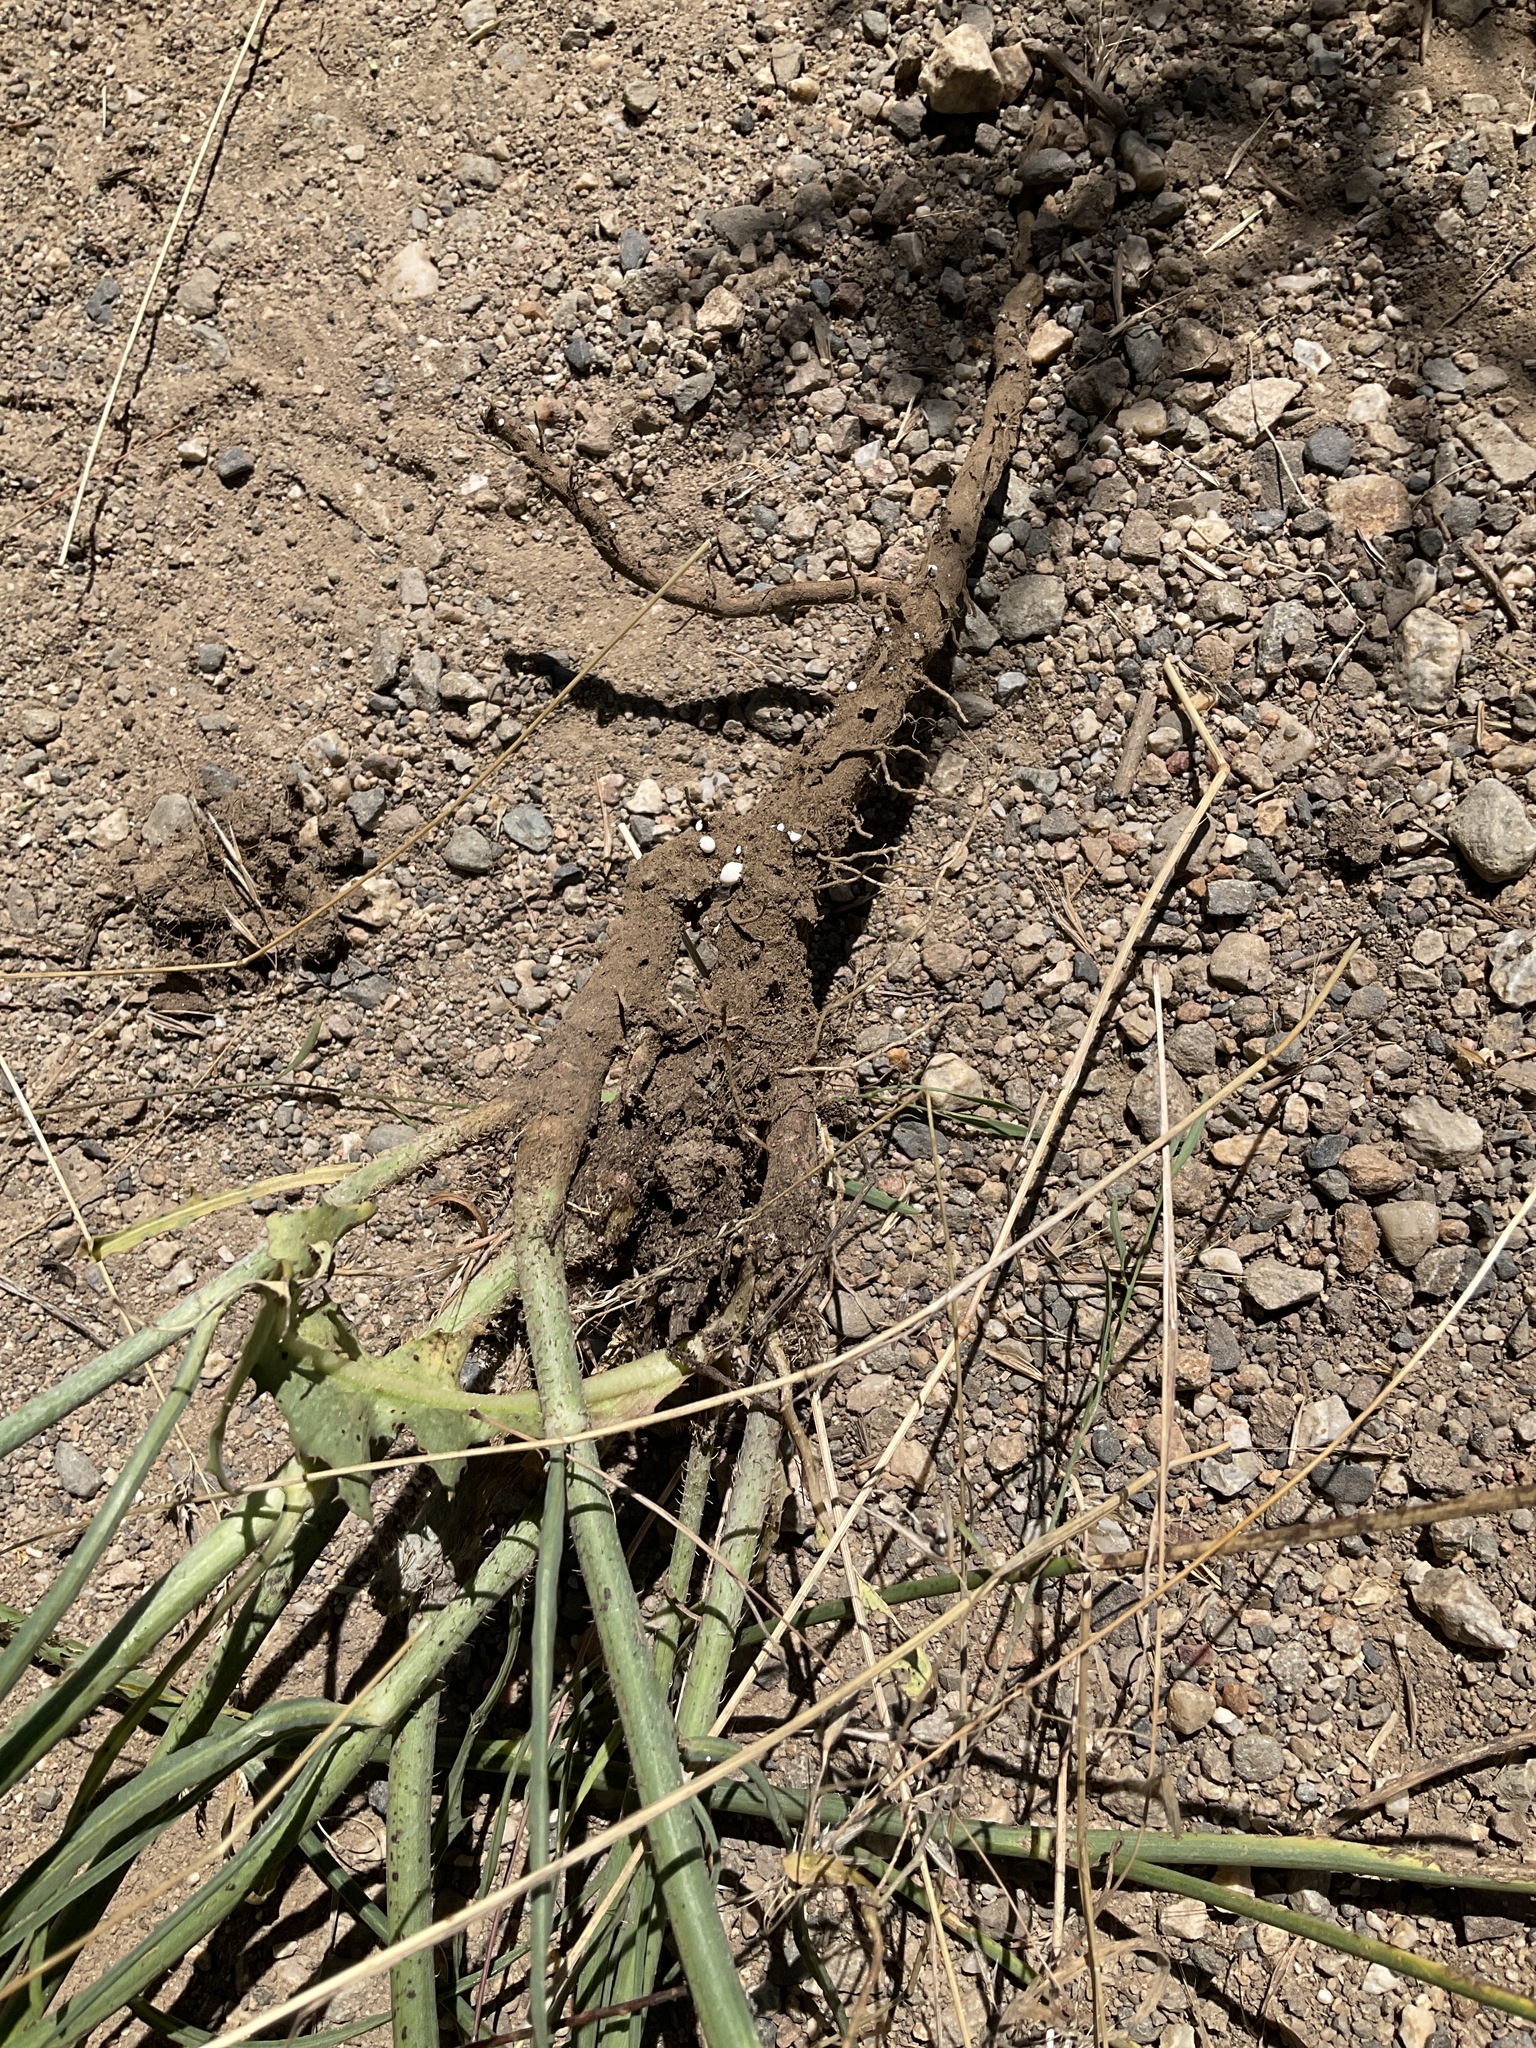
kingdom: Plantae
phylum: Tracheophyta
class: Magnoliopsida
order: Asterales
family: Asteraceae
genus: Chondrilla
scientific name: Chondrilla juncea
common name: Skeleton weed
